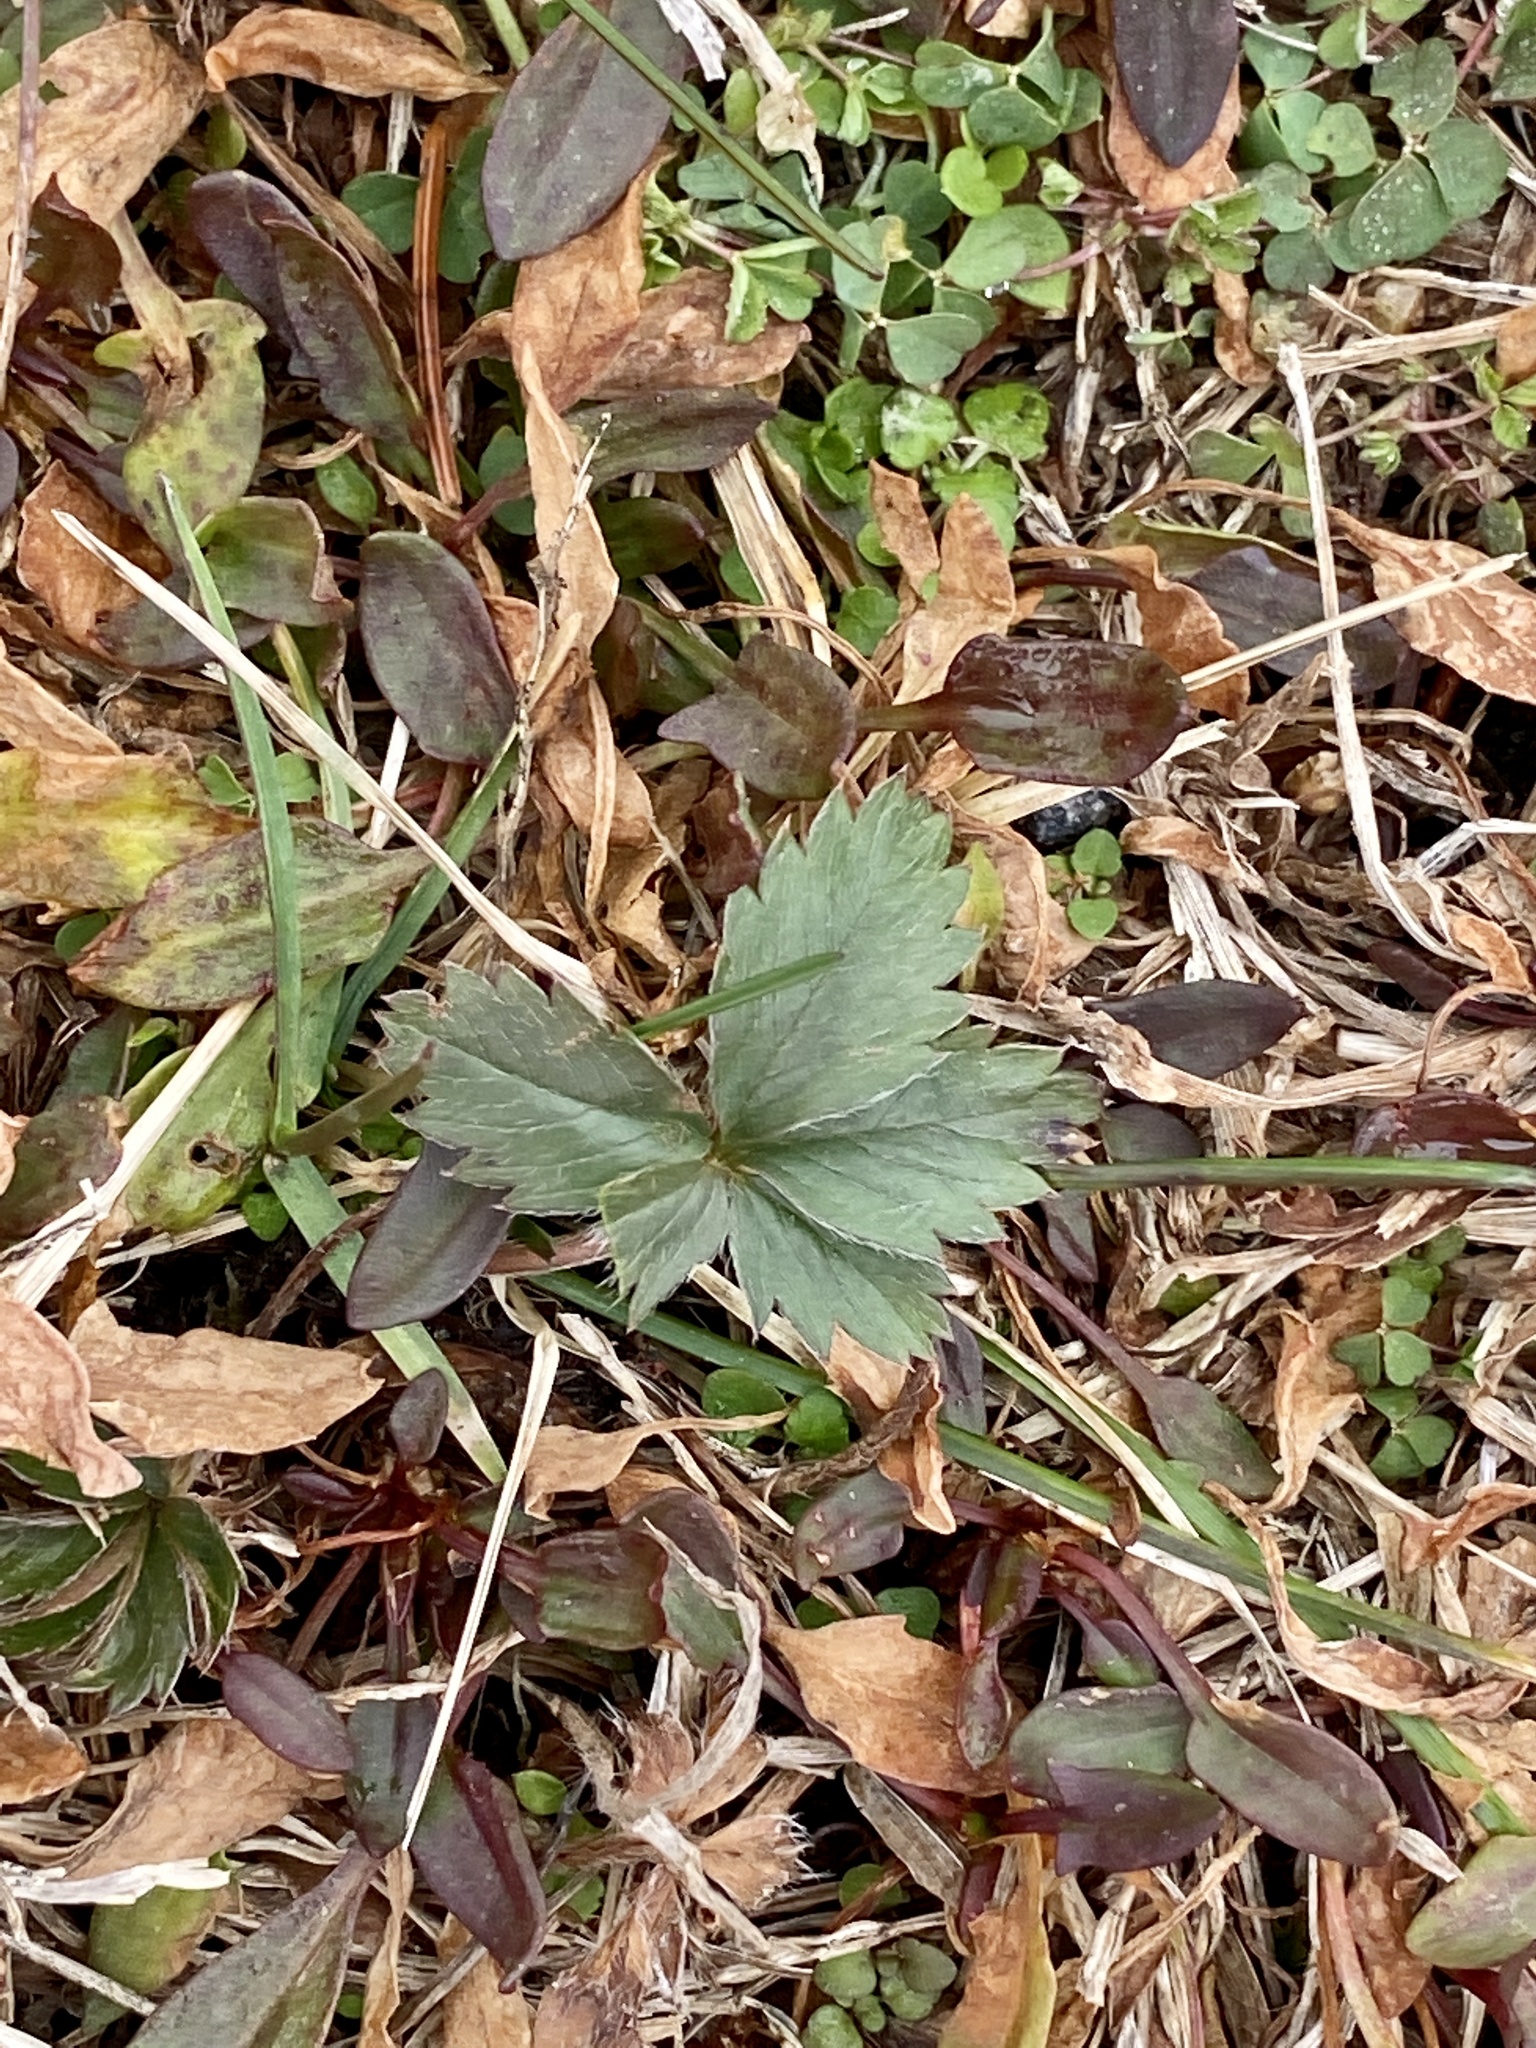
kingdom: Plantae
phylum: Tracheophyta
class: Magnoliopsida
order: Rosales
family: Rosaceae
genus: Potentilla
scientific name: Potentilla canadensis
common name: Canada cinquefoil
